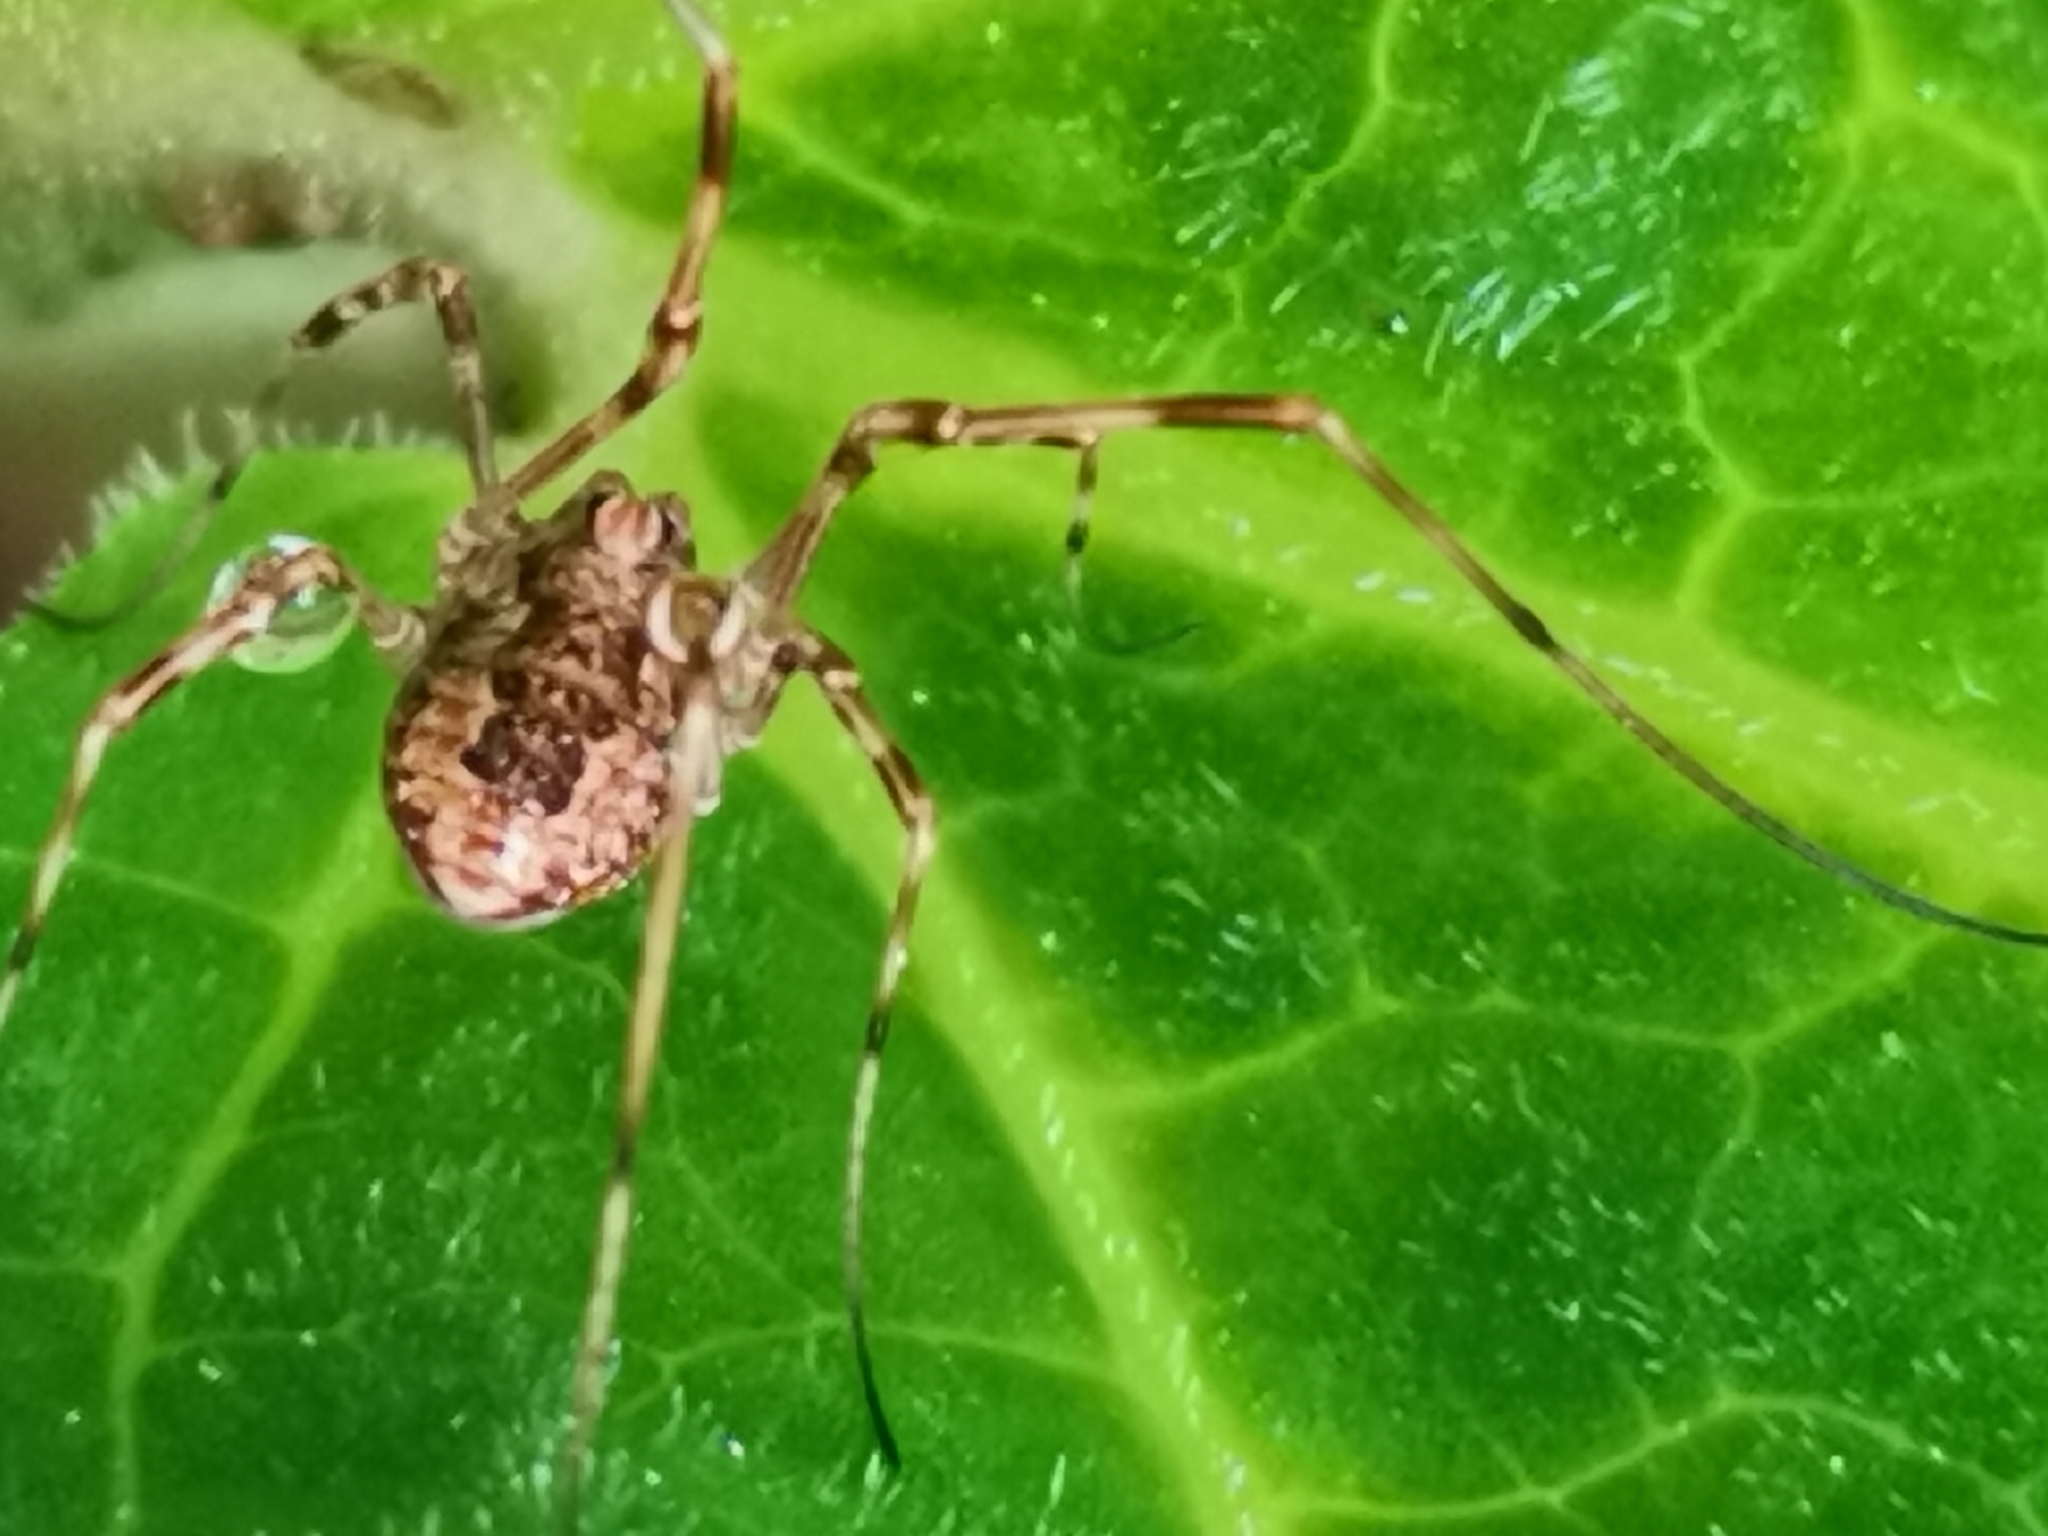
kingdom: Animalia
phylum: Arthropoda
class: Arachnida
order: Opiliones
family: Phalangiidae
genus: Rilaena
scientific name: Rilaena triangularis
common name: Spring harvestman
